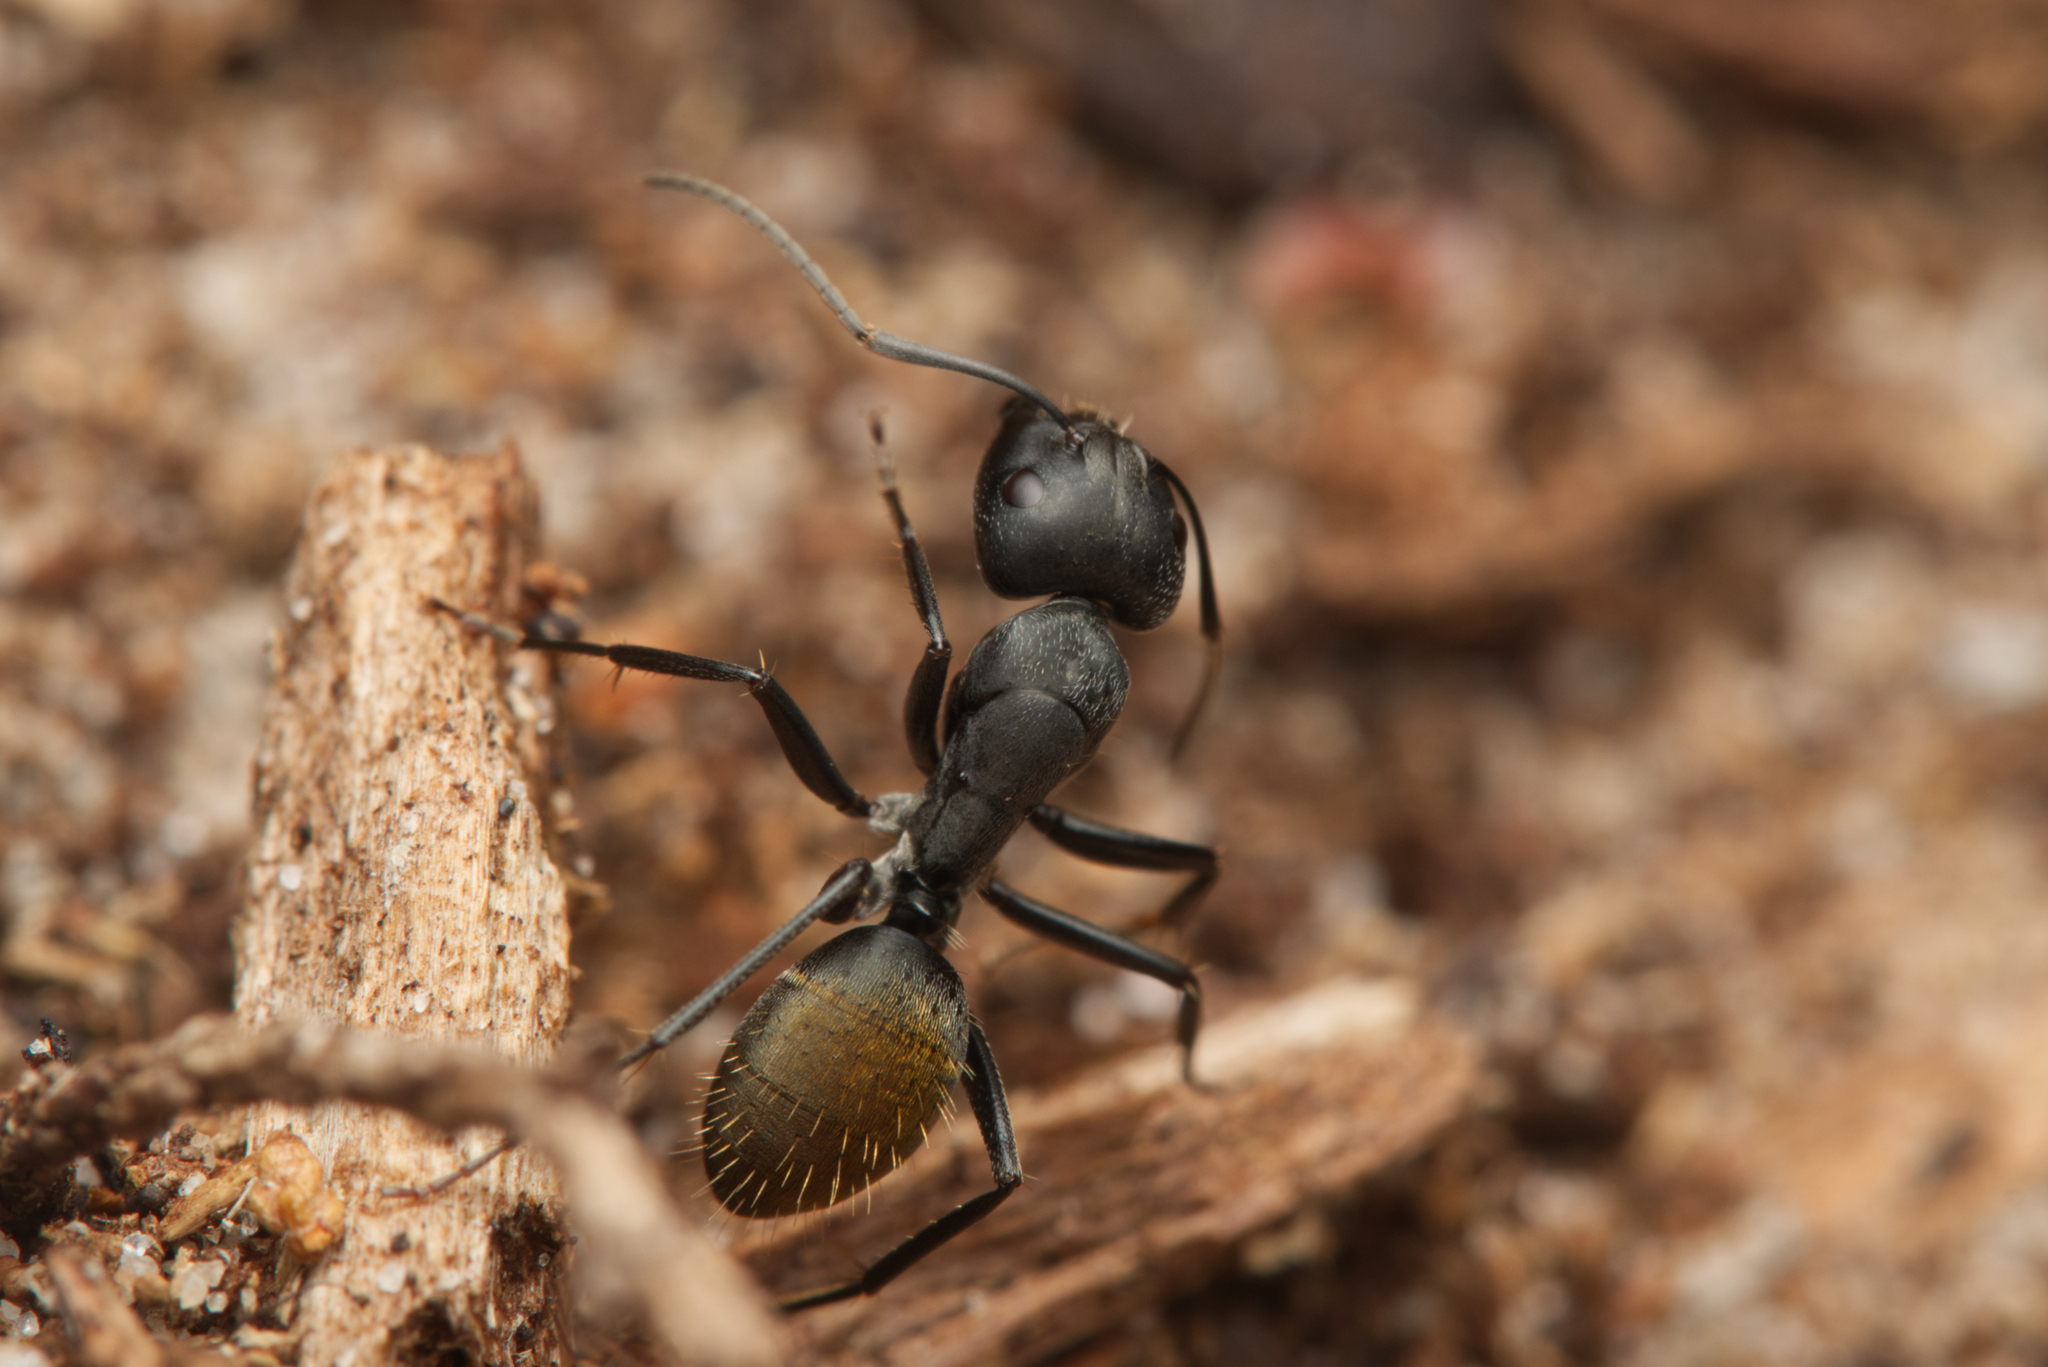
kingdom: Animalia
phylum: Arthropoda
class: Insecta
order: Hymenoptera
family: Formicidae
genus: Camponotus
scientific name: Camponotus aeneopilosus
